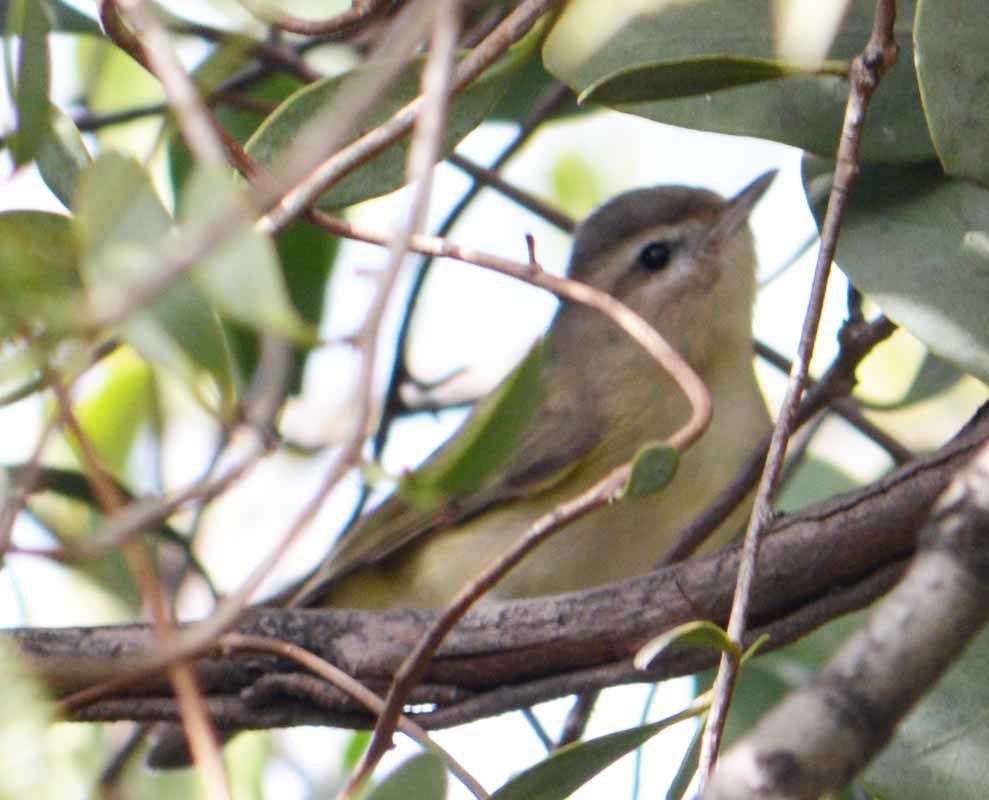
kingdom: Animalia
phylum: Chordata
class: Aves
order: Passeriformes
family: Vireonidae
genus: Vireo
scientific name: Vireo philadelphicus
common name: Philadelphia vireo
